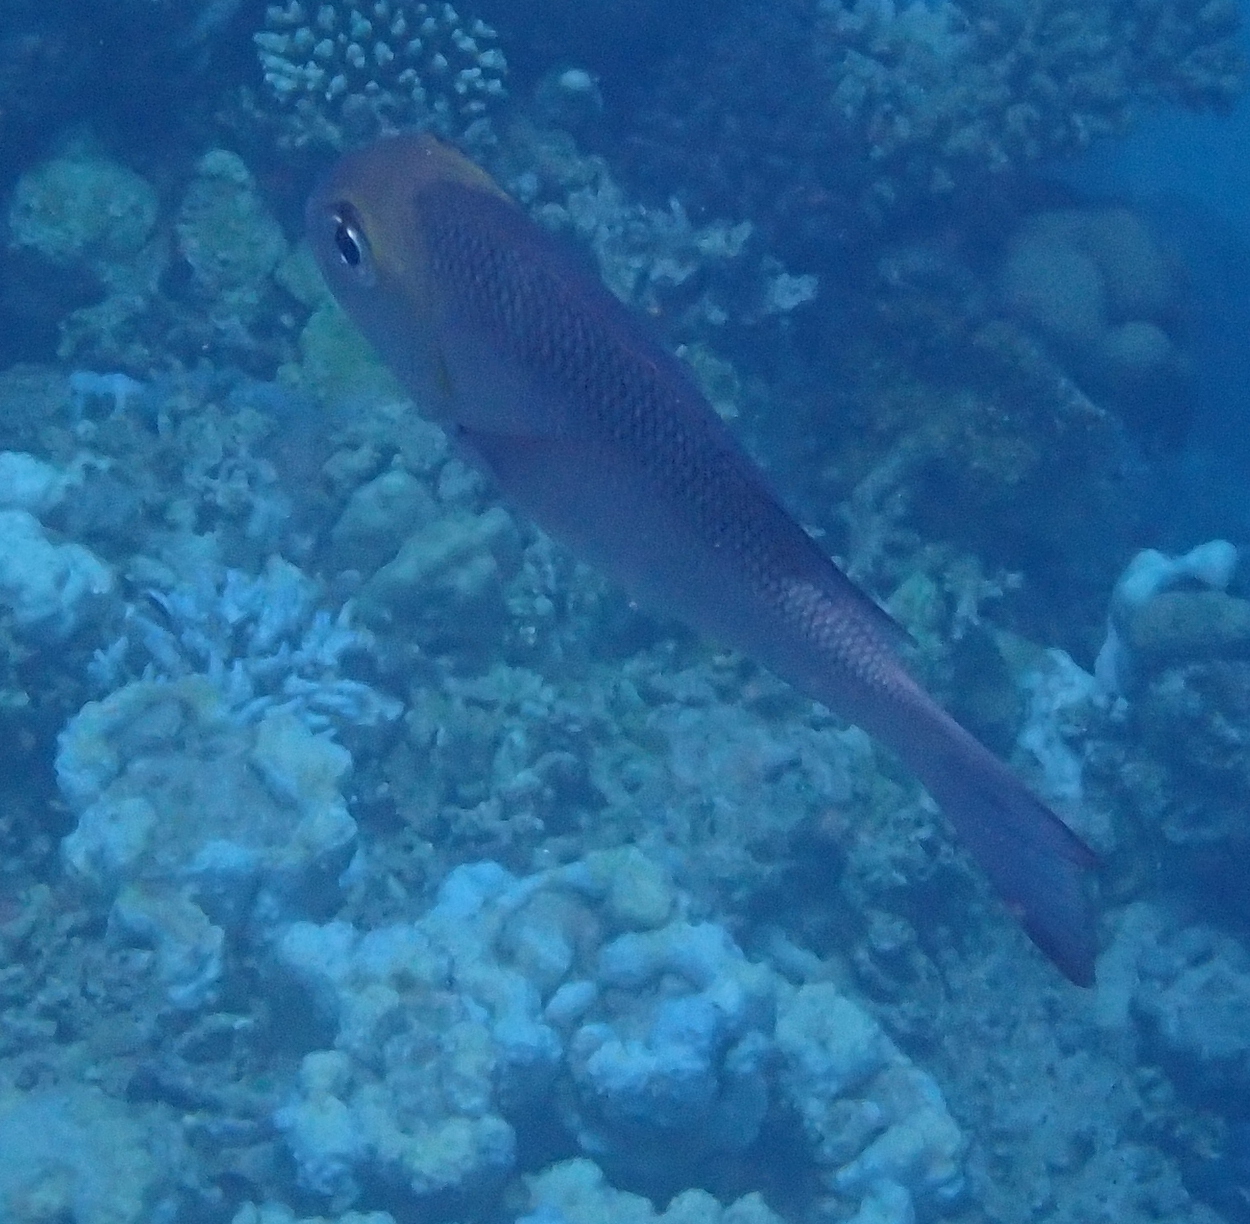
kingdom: Animalia
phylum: Chordata
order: Perciformes
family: Lethrinidae
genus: Monotaxis
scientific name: Monotaxis grandoculis
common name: Bigeye emperor
